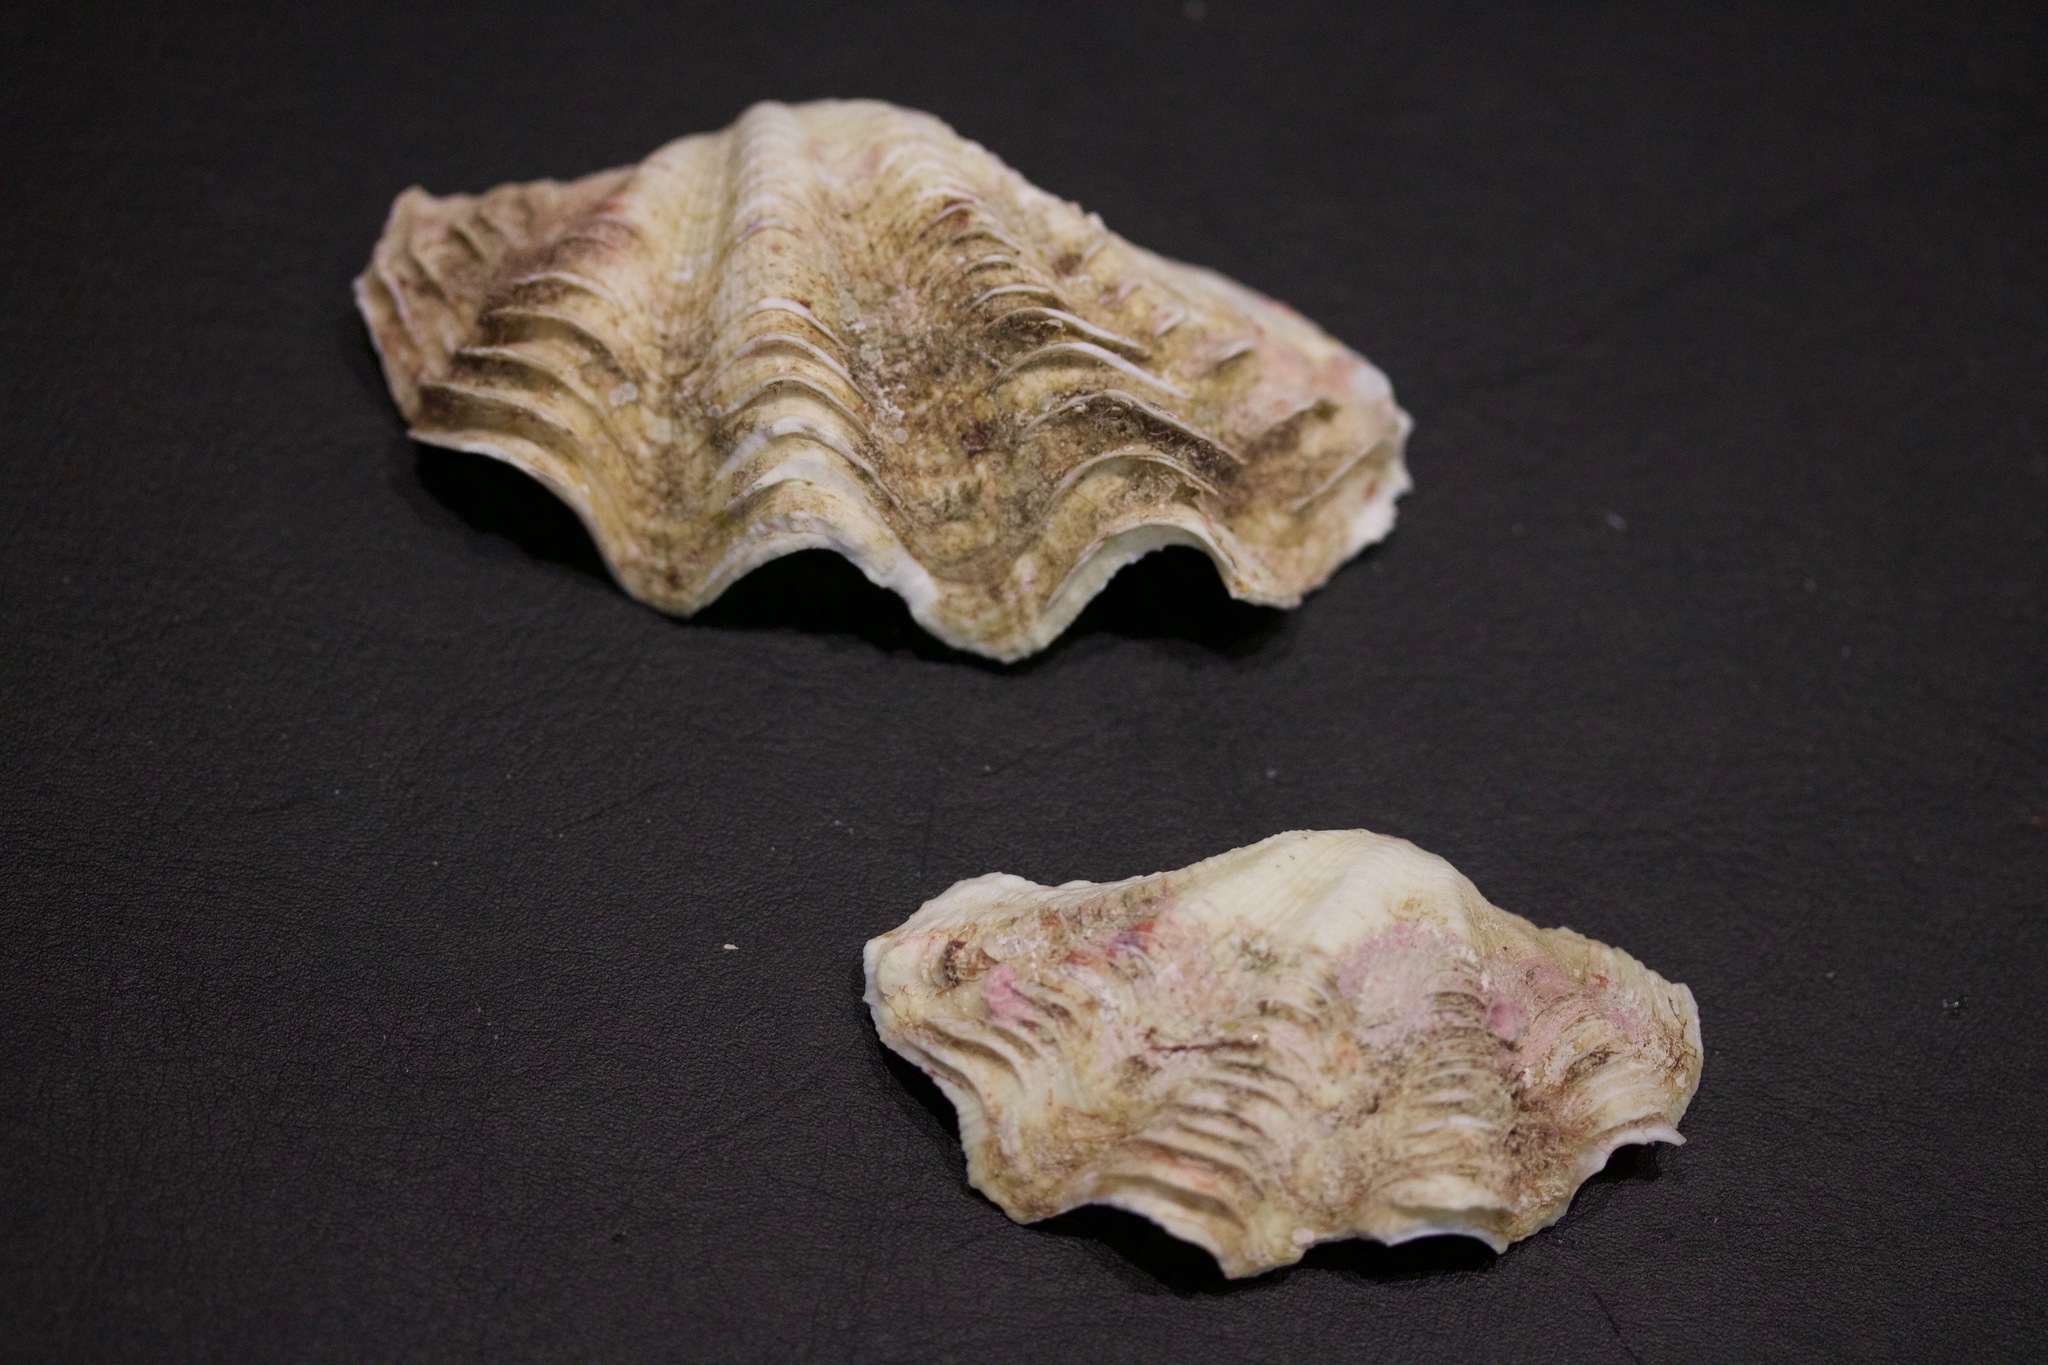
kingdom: Animalia
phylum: Mollusca
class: Bivalvia
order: Cardiida
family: Cardiidae
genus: Tridacna
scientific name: Tridacna maxima
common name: Small giant clam
